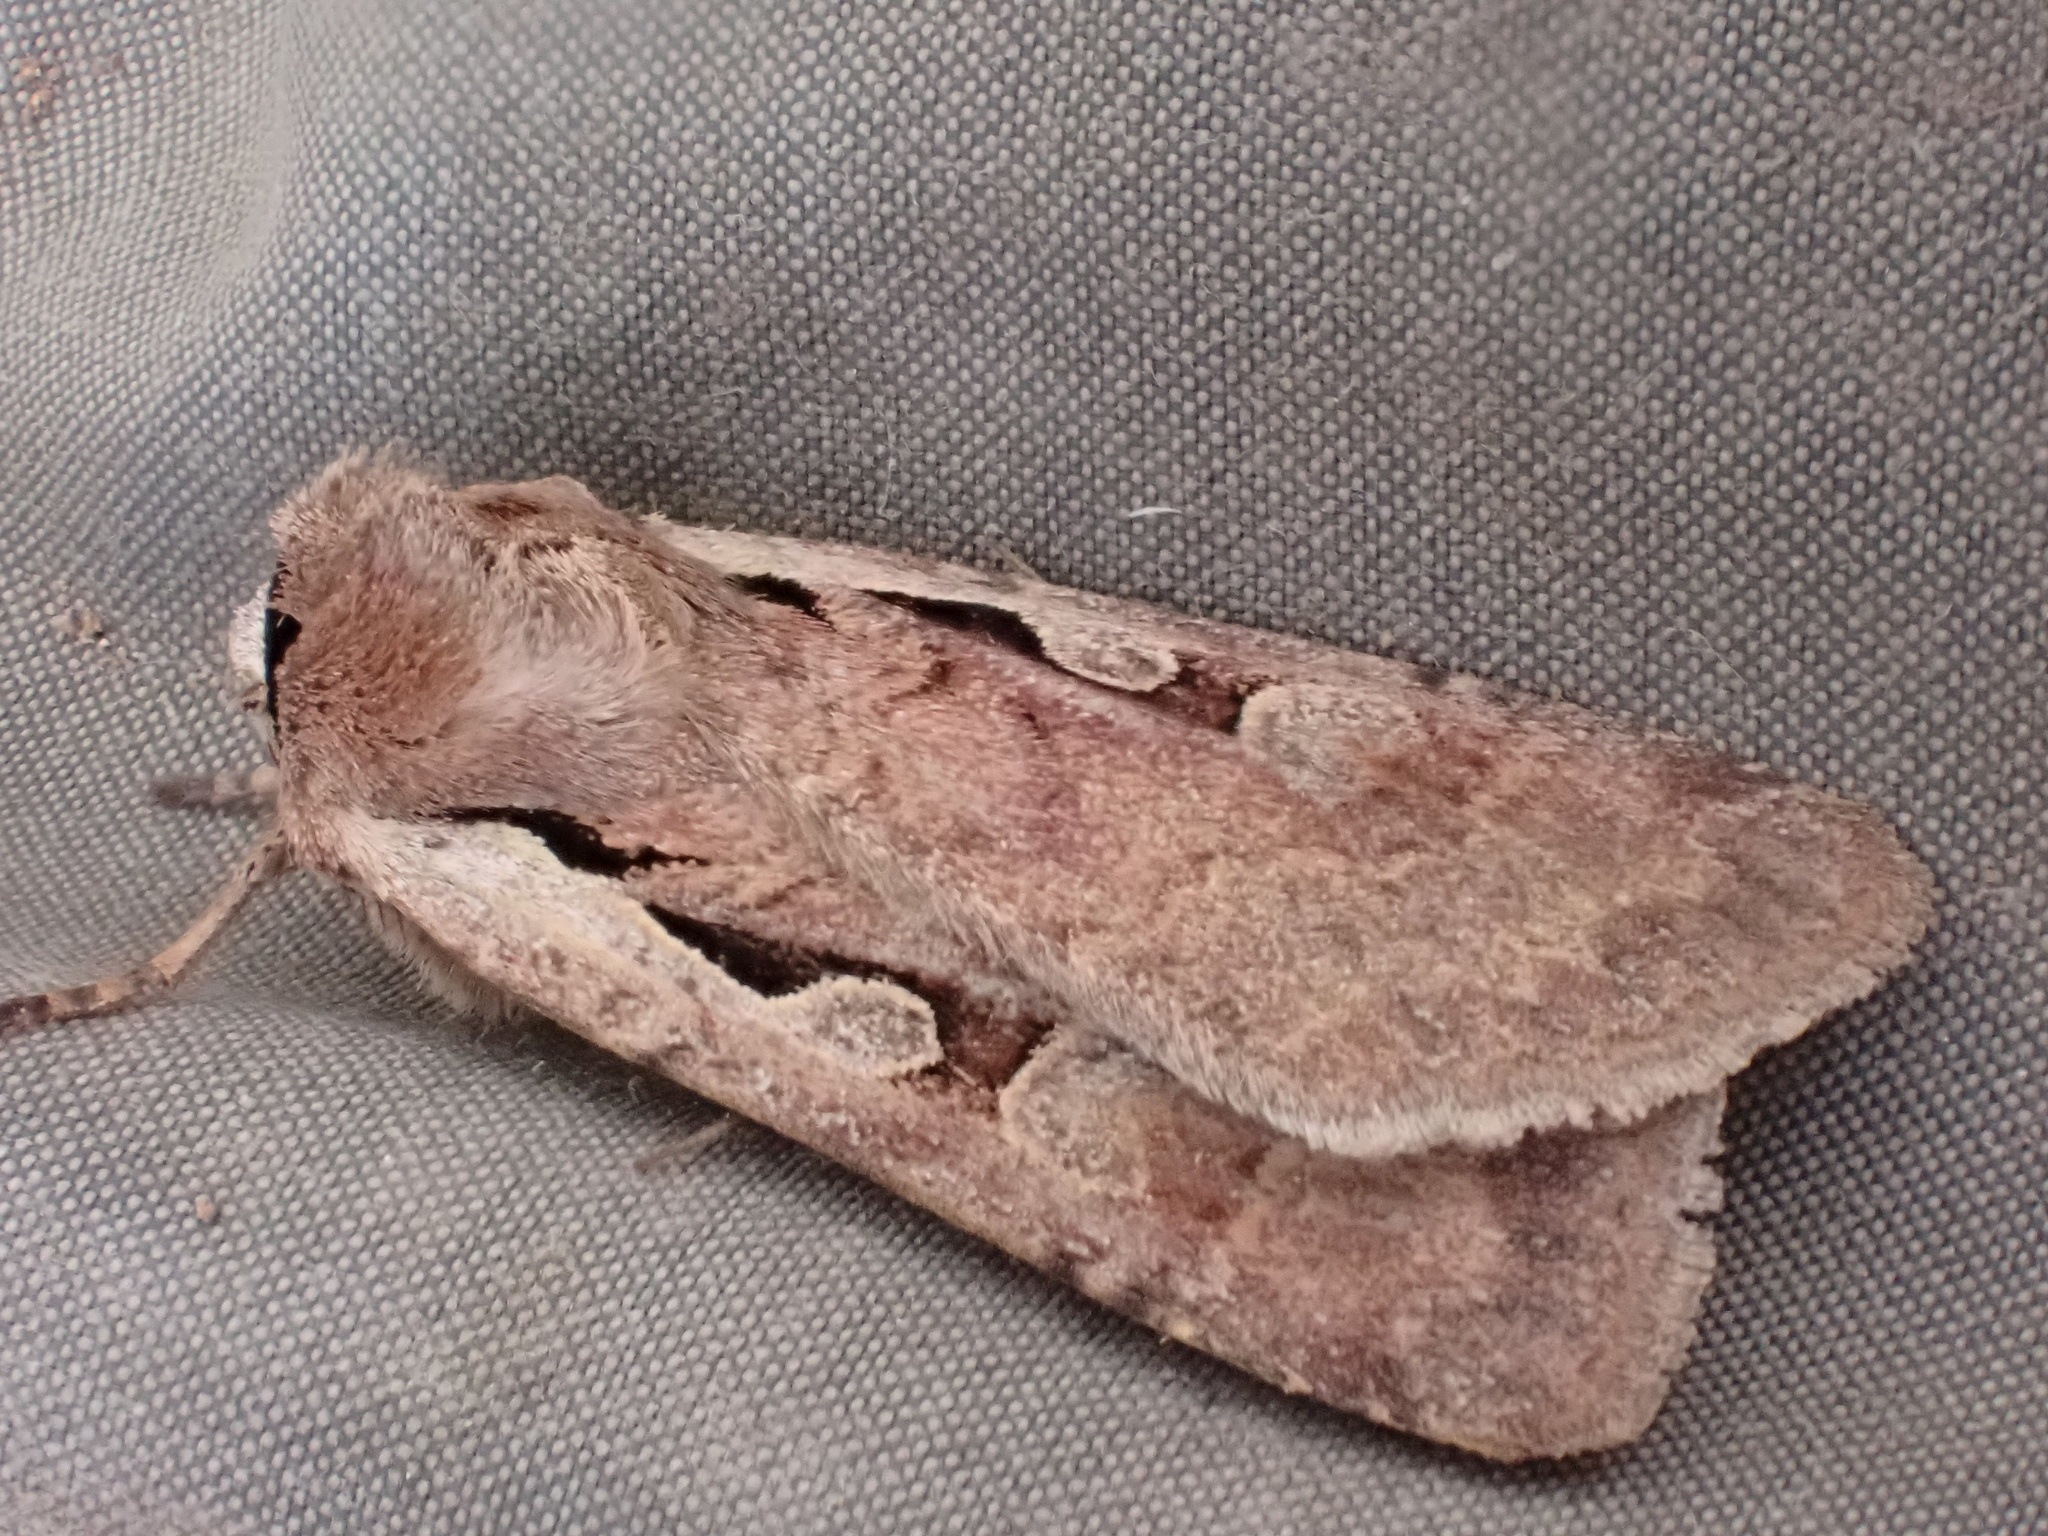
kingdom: Animalia
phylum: Arthropoda
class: Insecta
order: Lepidoptera
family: Noctuidae
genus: Basistriga
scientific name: Basistriga flammatra
